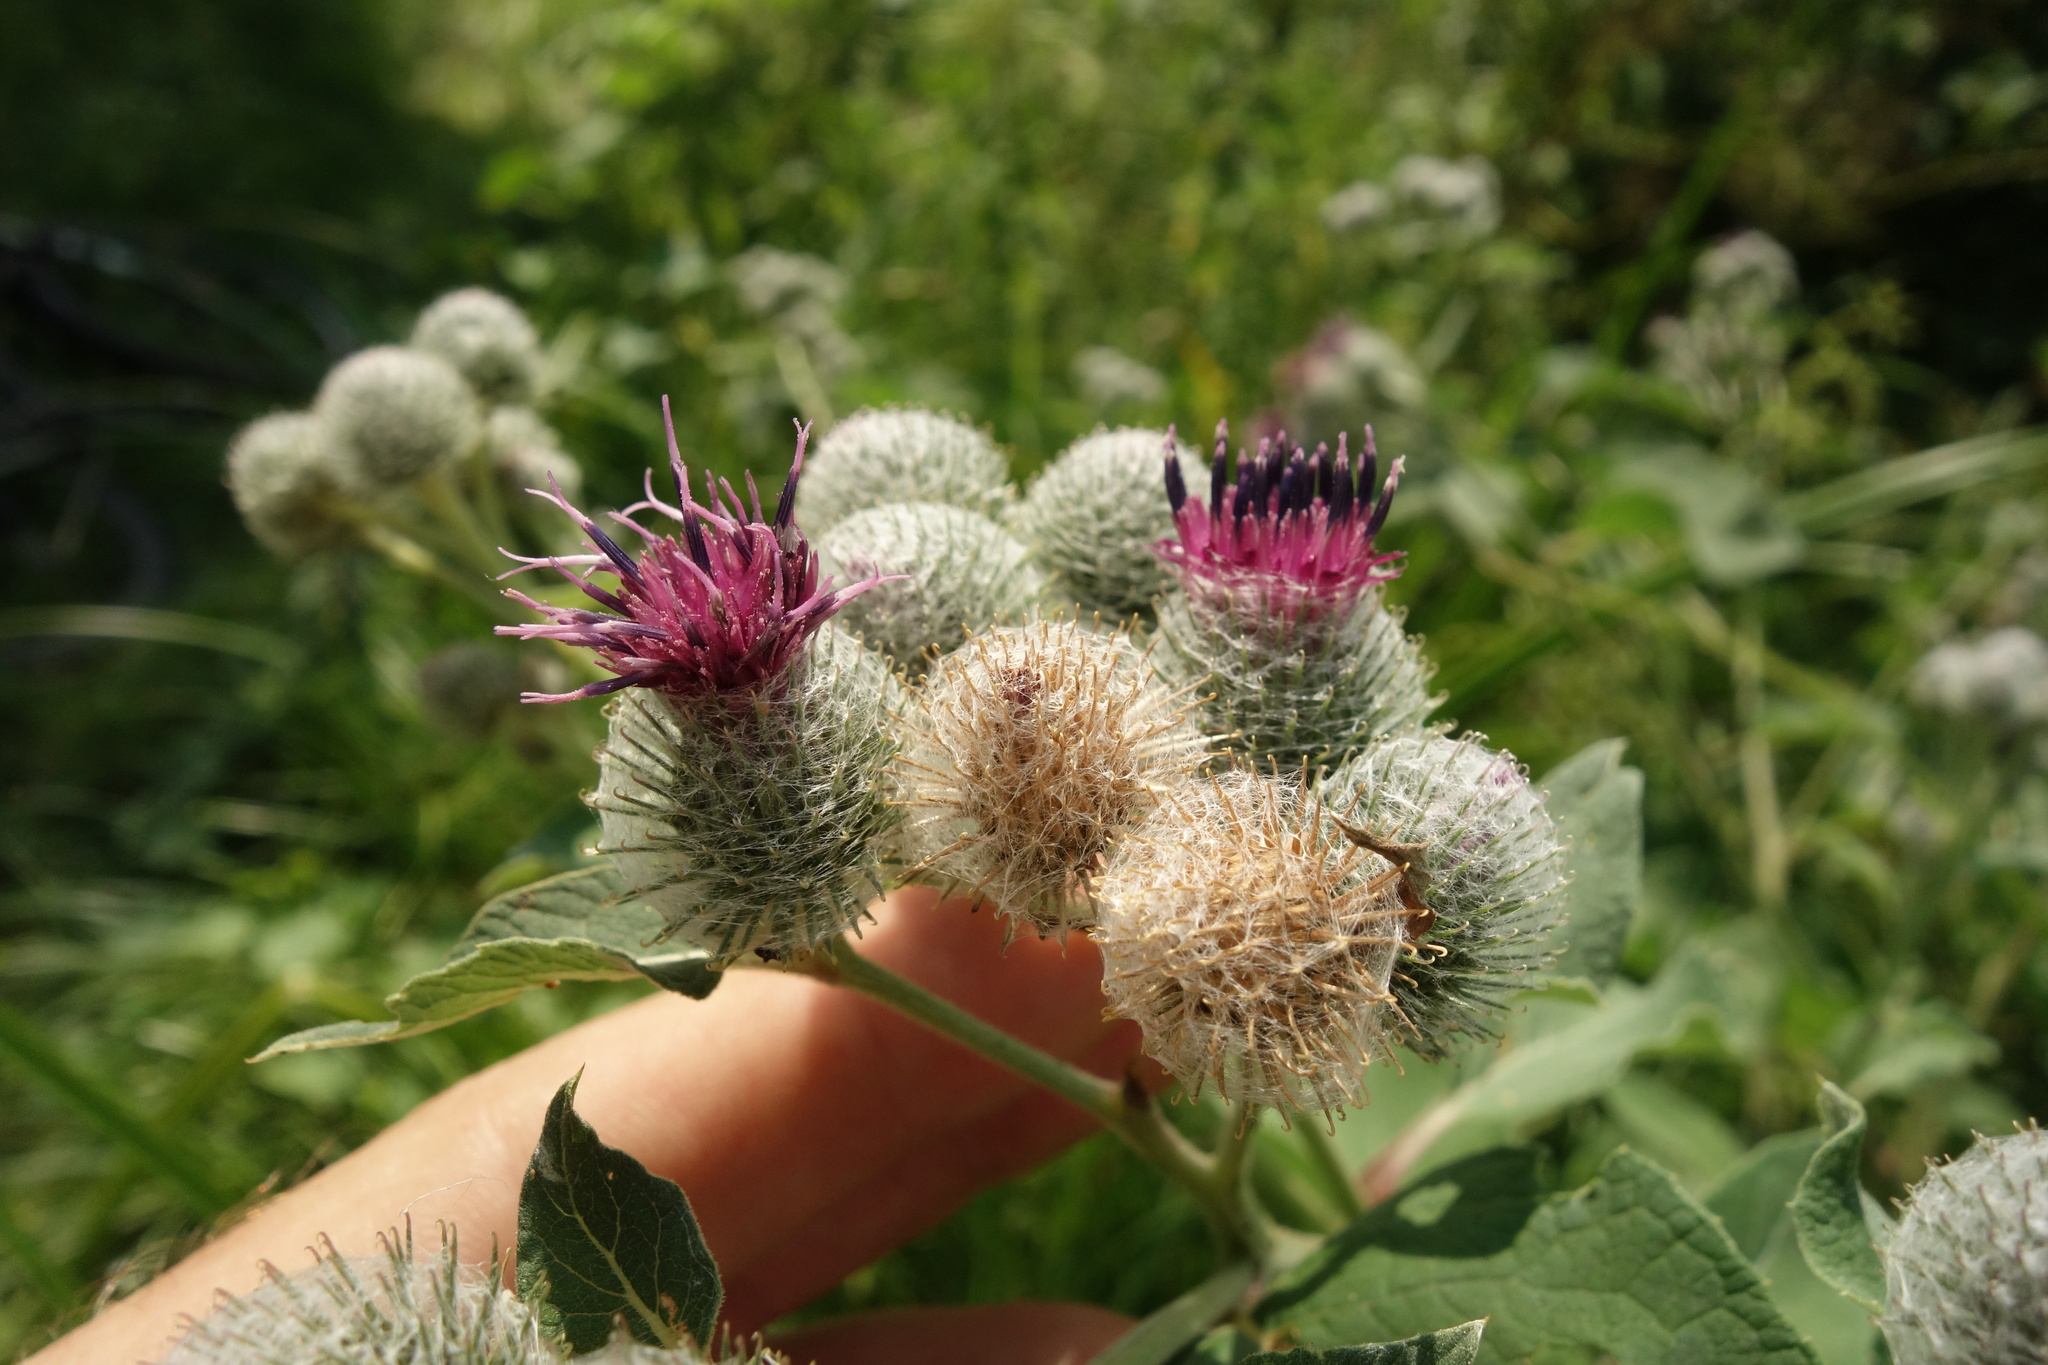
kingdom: Plantae
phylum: Tracheophyta
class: Magnoliopsida
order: Asterales
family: Asteraceae
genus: Arctium
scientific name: Arctium tomentosum
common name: Woolly burdock
